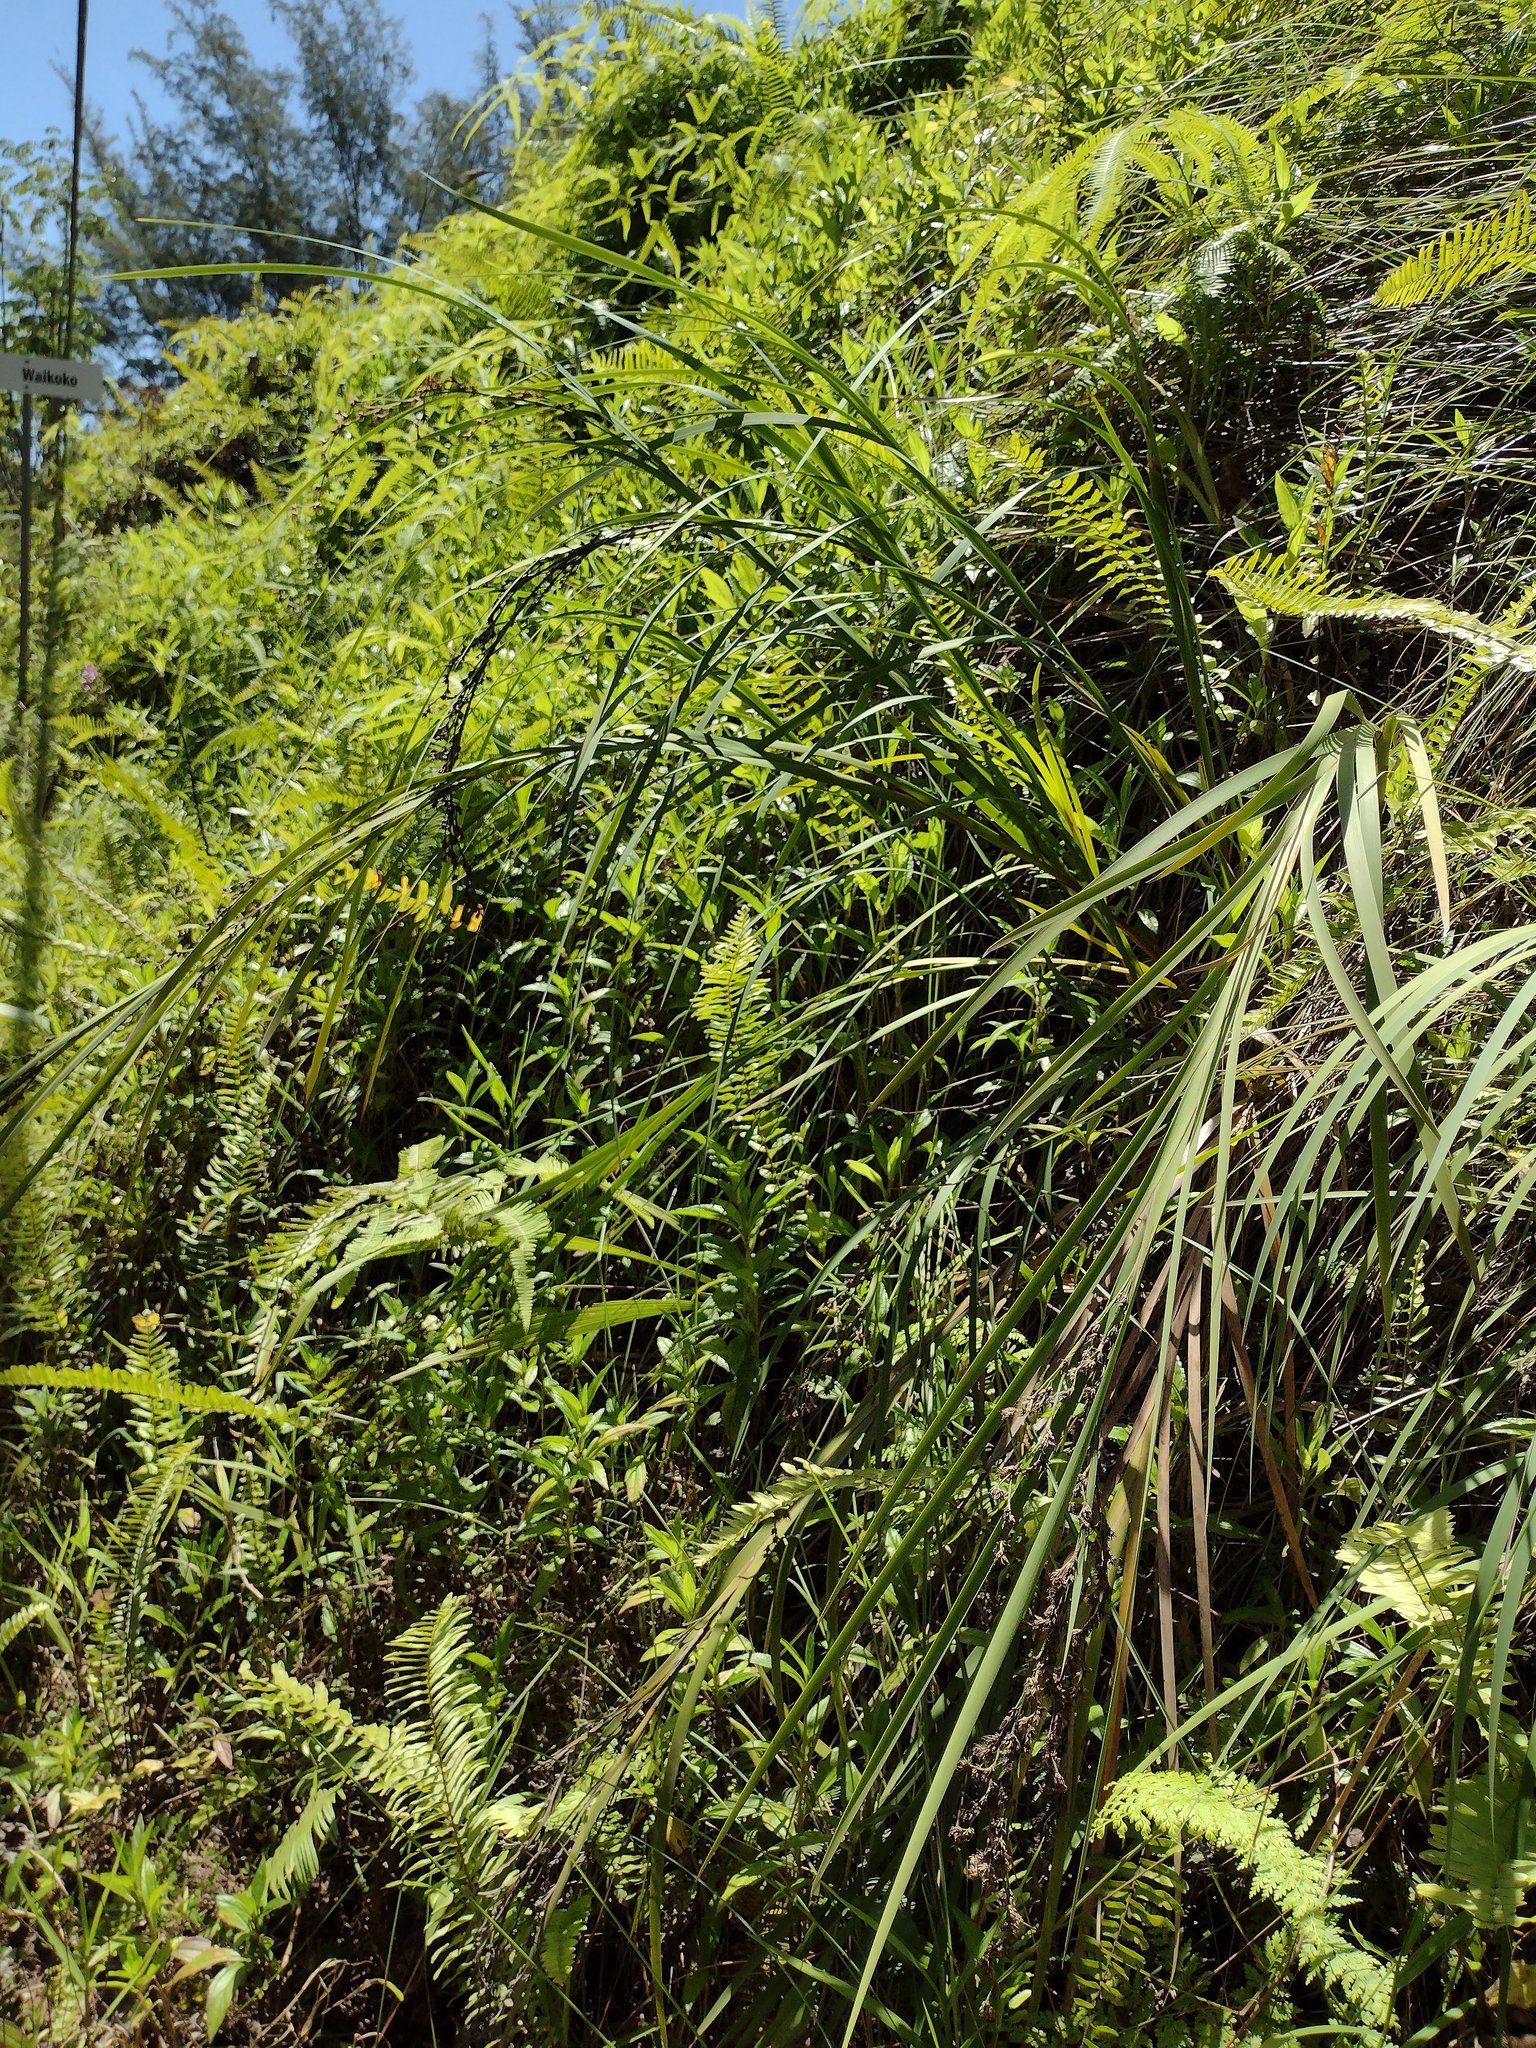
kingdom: Plantae
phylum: Tracheophyta
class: Liliopsida
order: Poales
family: Cyperaceae
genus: Machaerina
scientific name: Machaerina angustifolia
